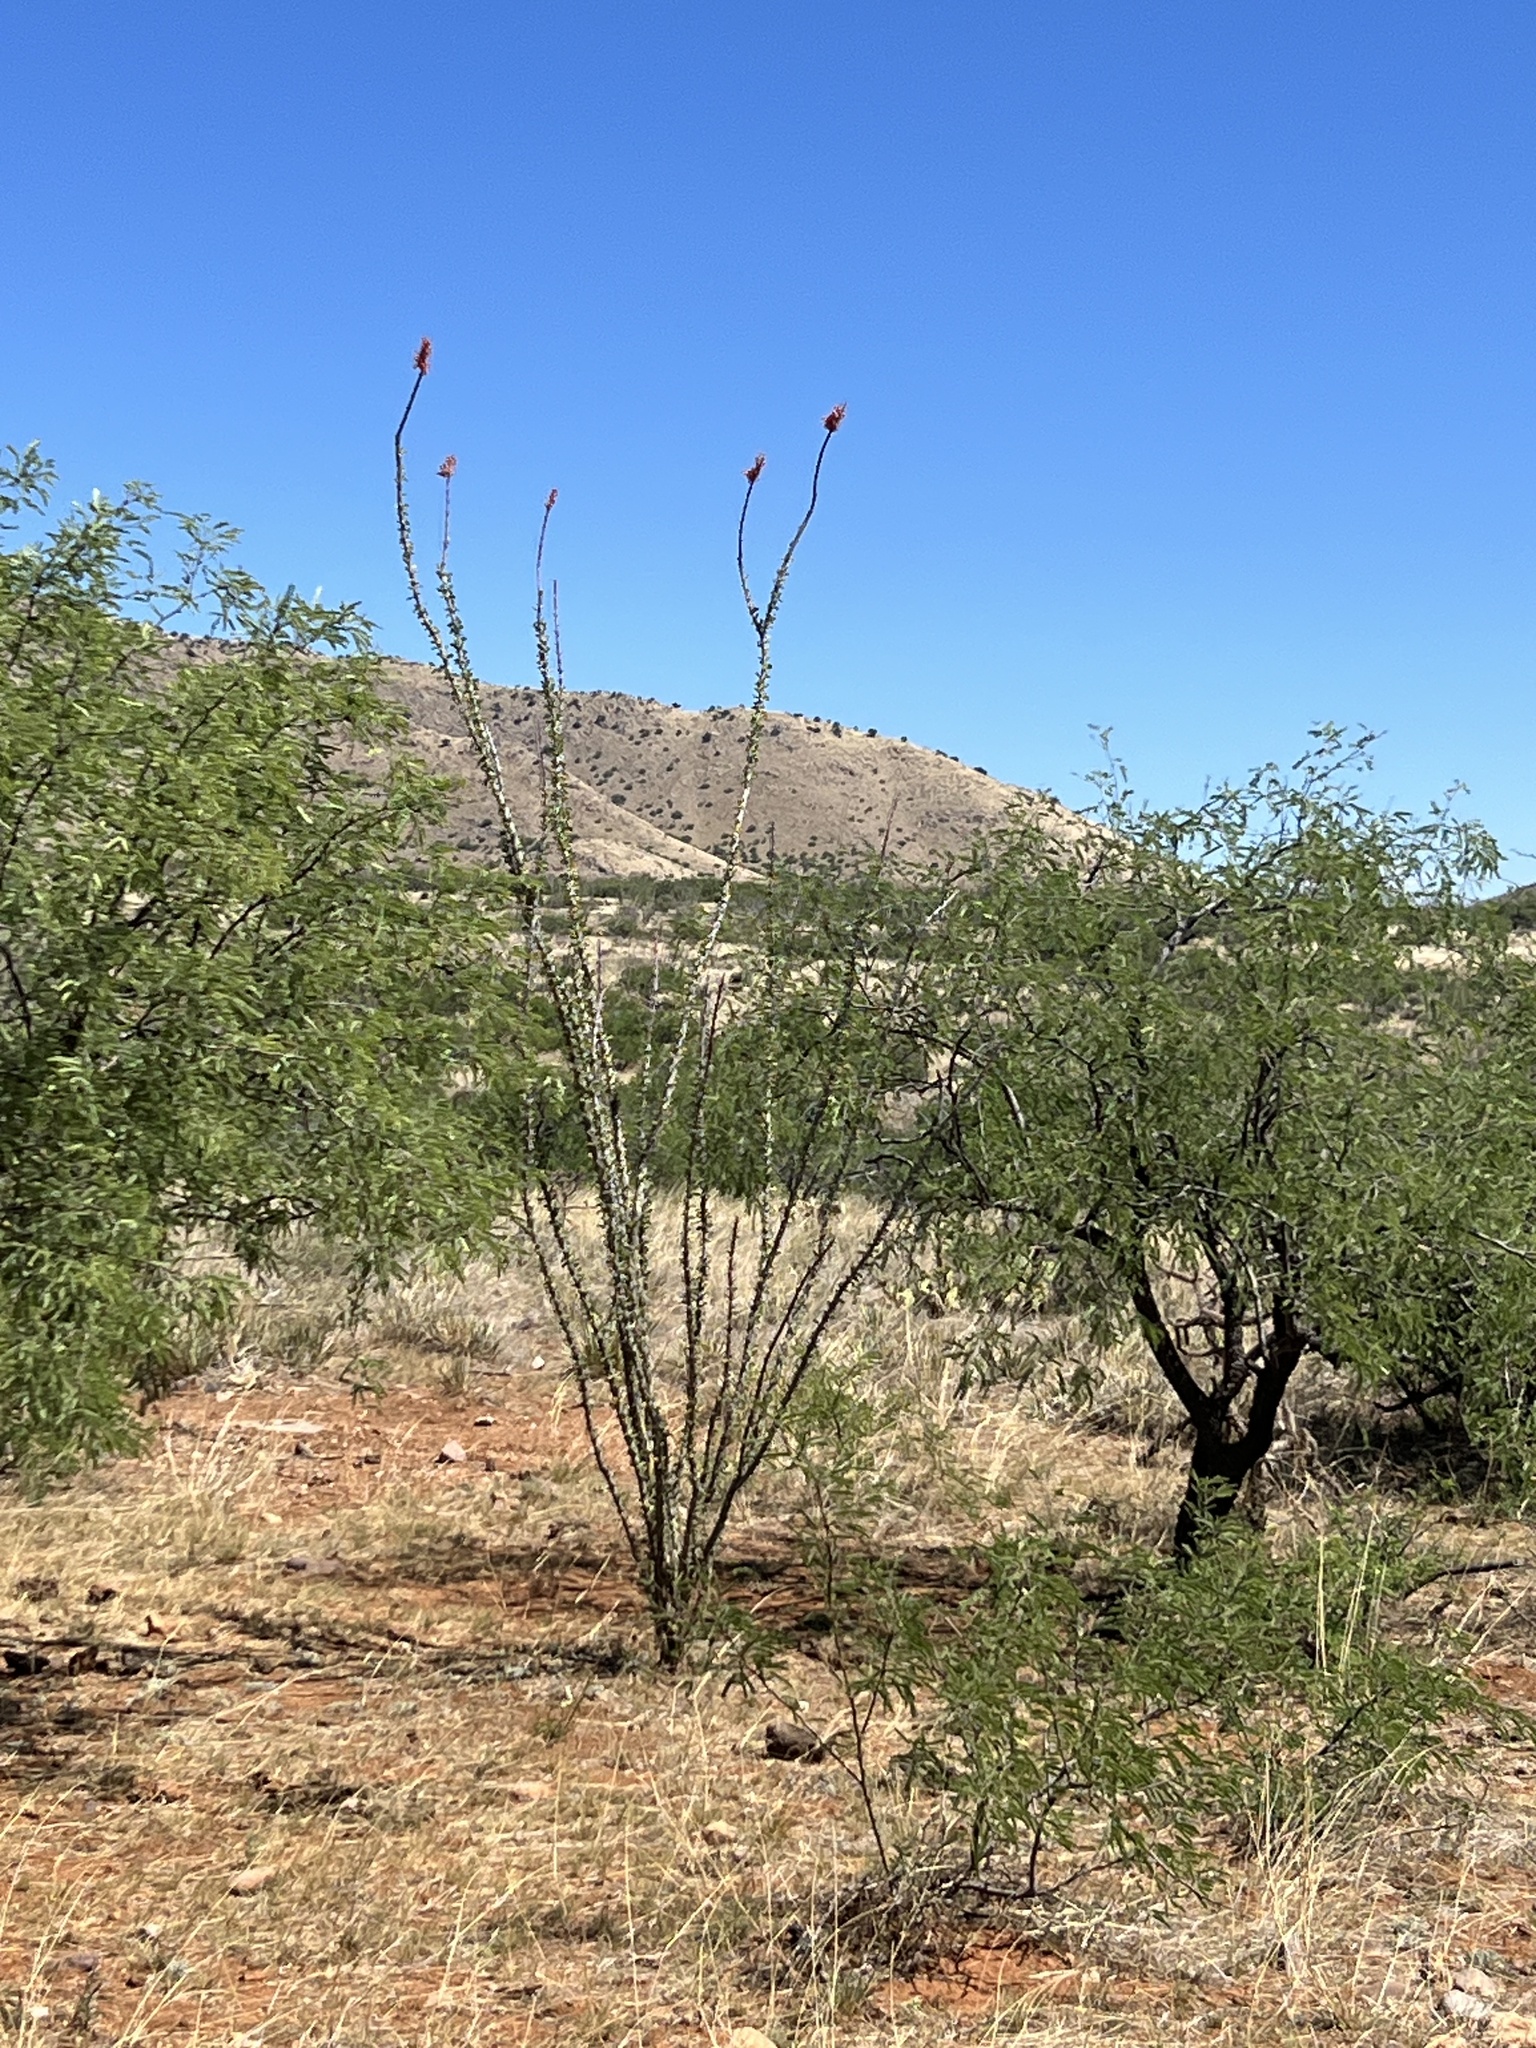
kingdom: Plantae
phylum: Tracheophyta
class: Magnoliopsida
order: Ericales
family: Fouquieriaceae
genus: Fouquieria
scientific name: Fouquieria splendens
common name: Vine-cactus
